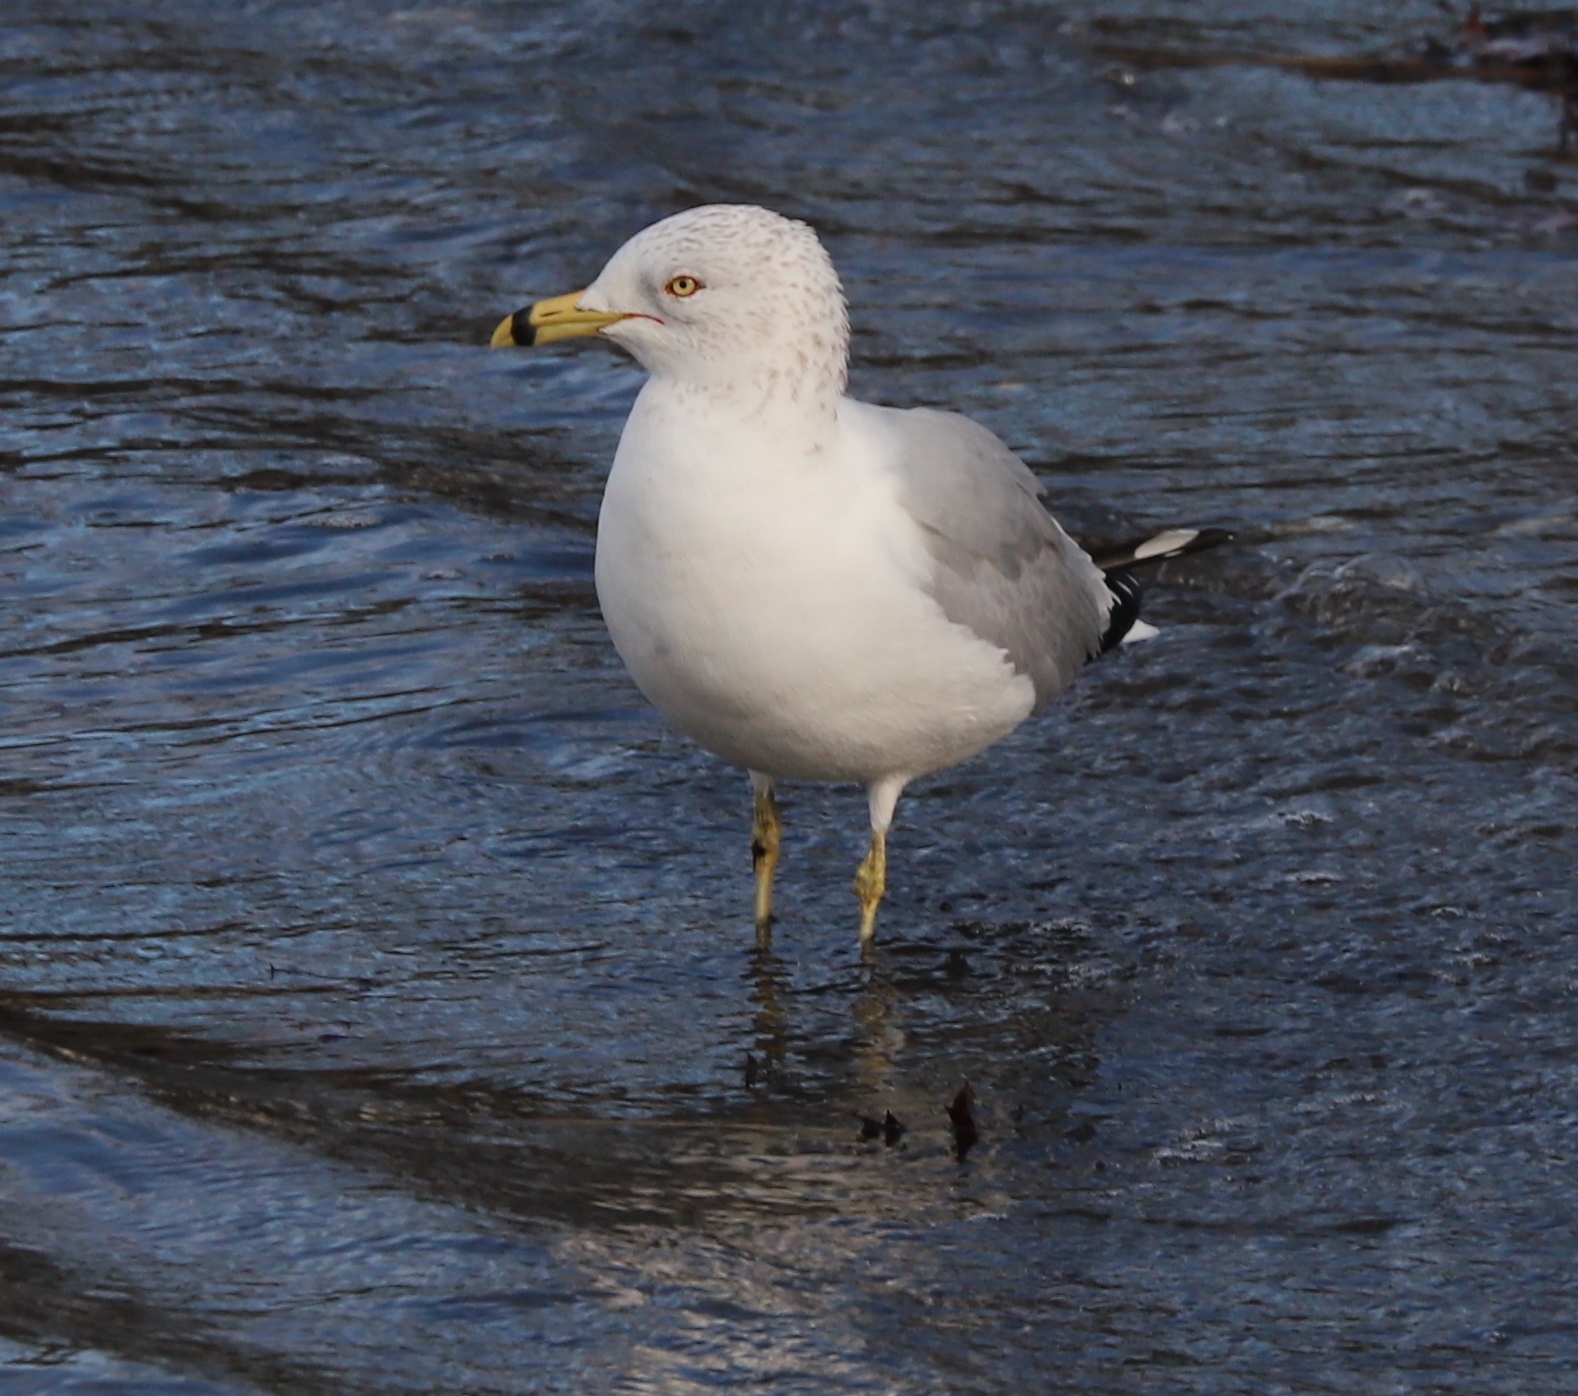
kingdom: Animalia
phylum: Chordata
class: Aves
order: Charadriiformes
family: Laridae
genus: Larus
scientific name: Larus delawarensis
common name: Ring-billed gull
